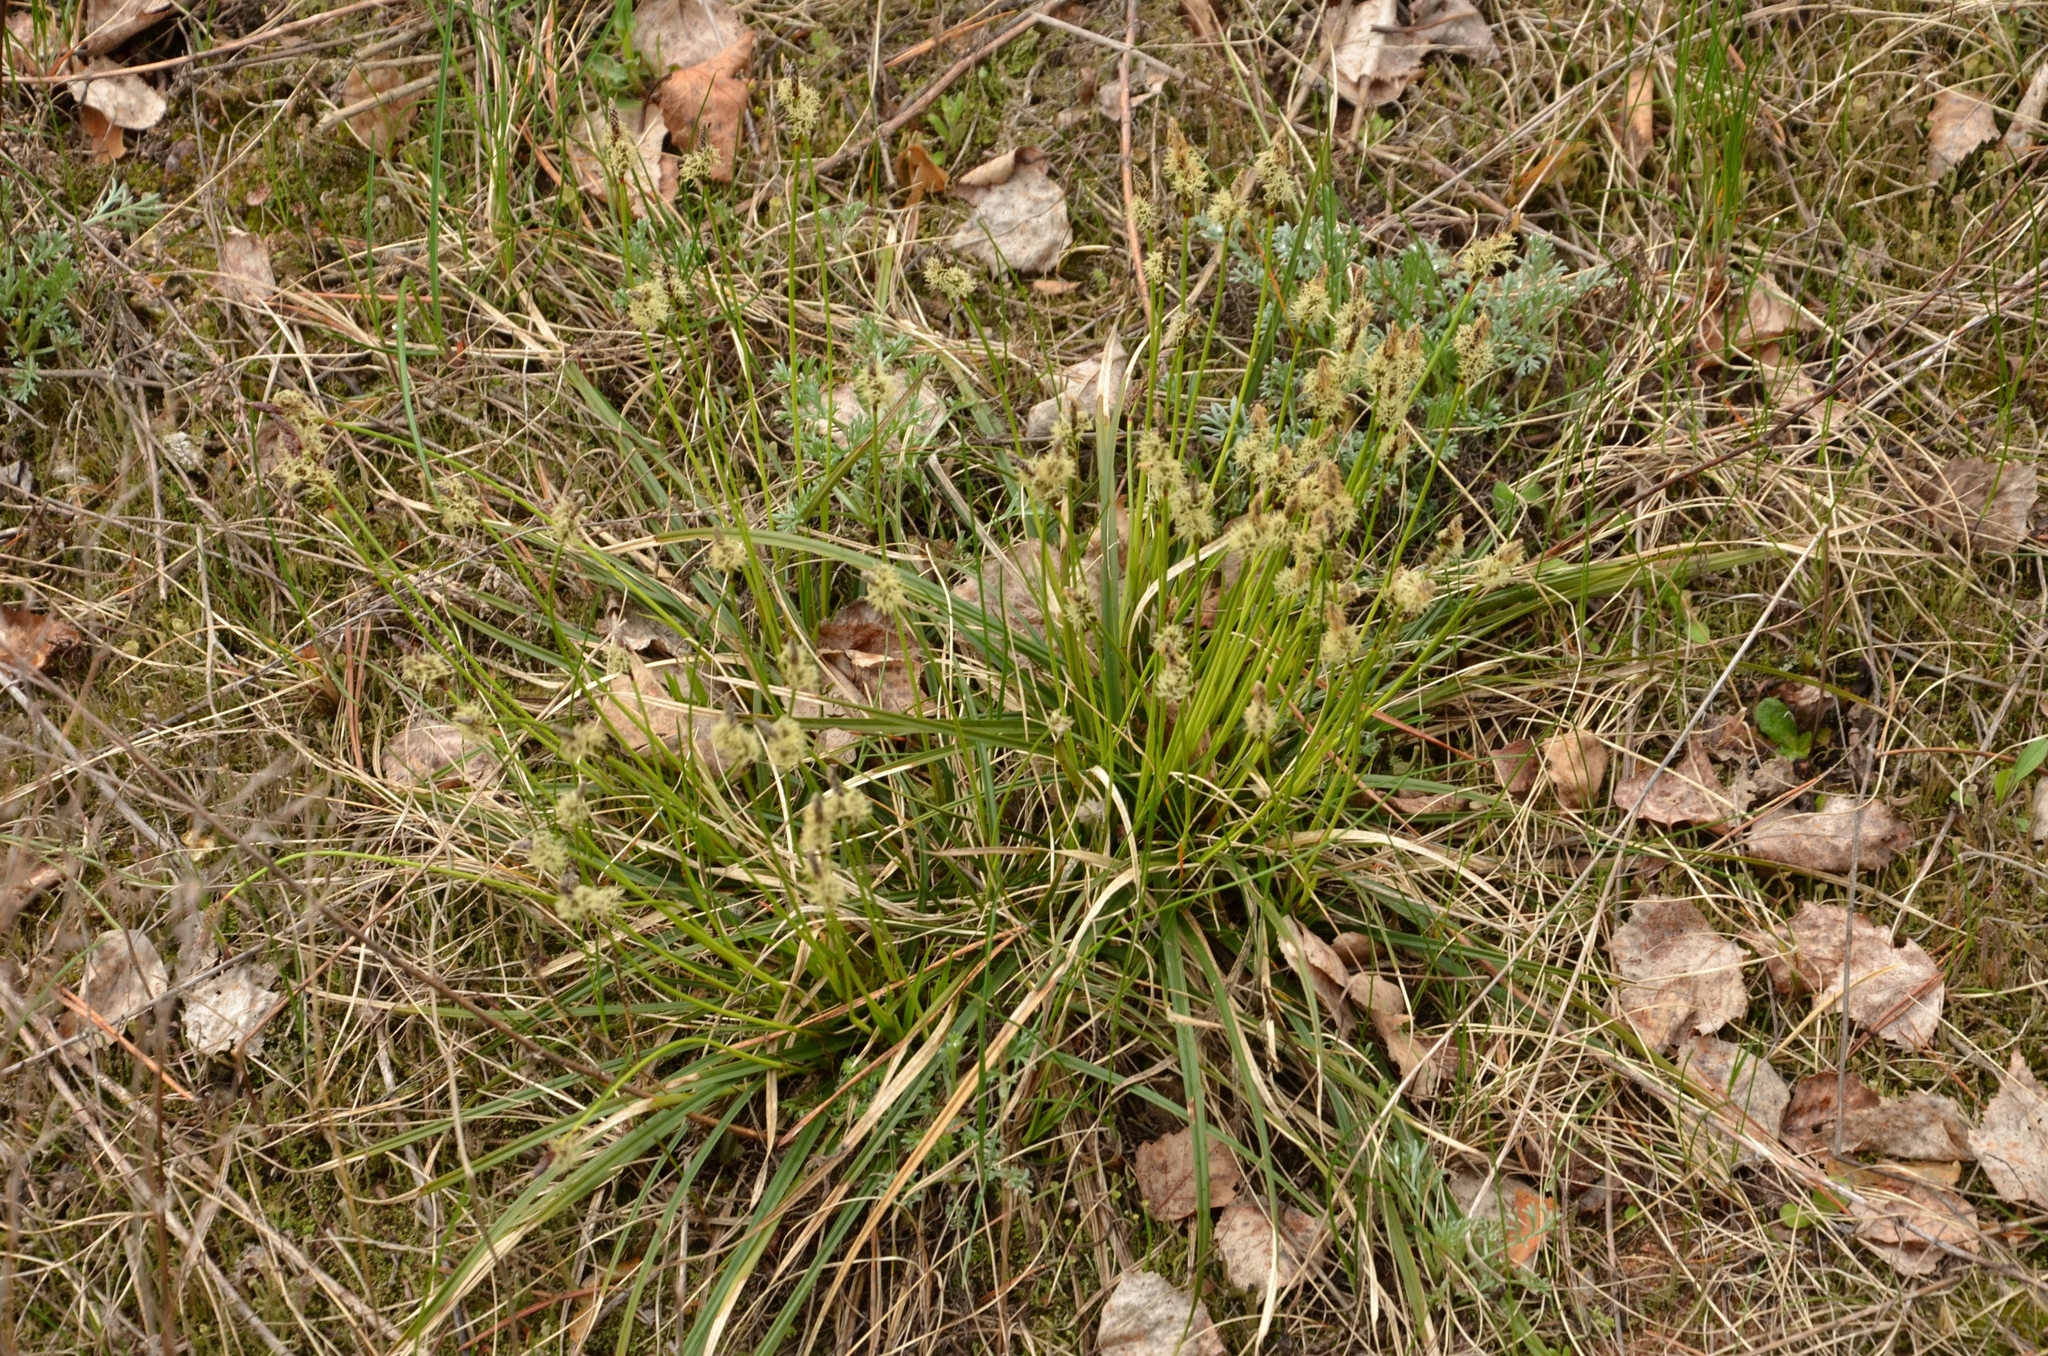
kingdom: Plantae
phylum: Tracheophyta
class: Liliopsida
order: Poales
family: Cyperaceae
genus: Carex
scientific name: Carex ericetorum
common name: Rare spring-sedge
